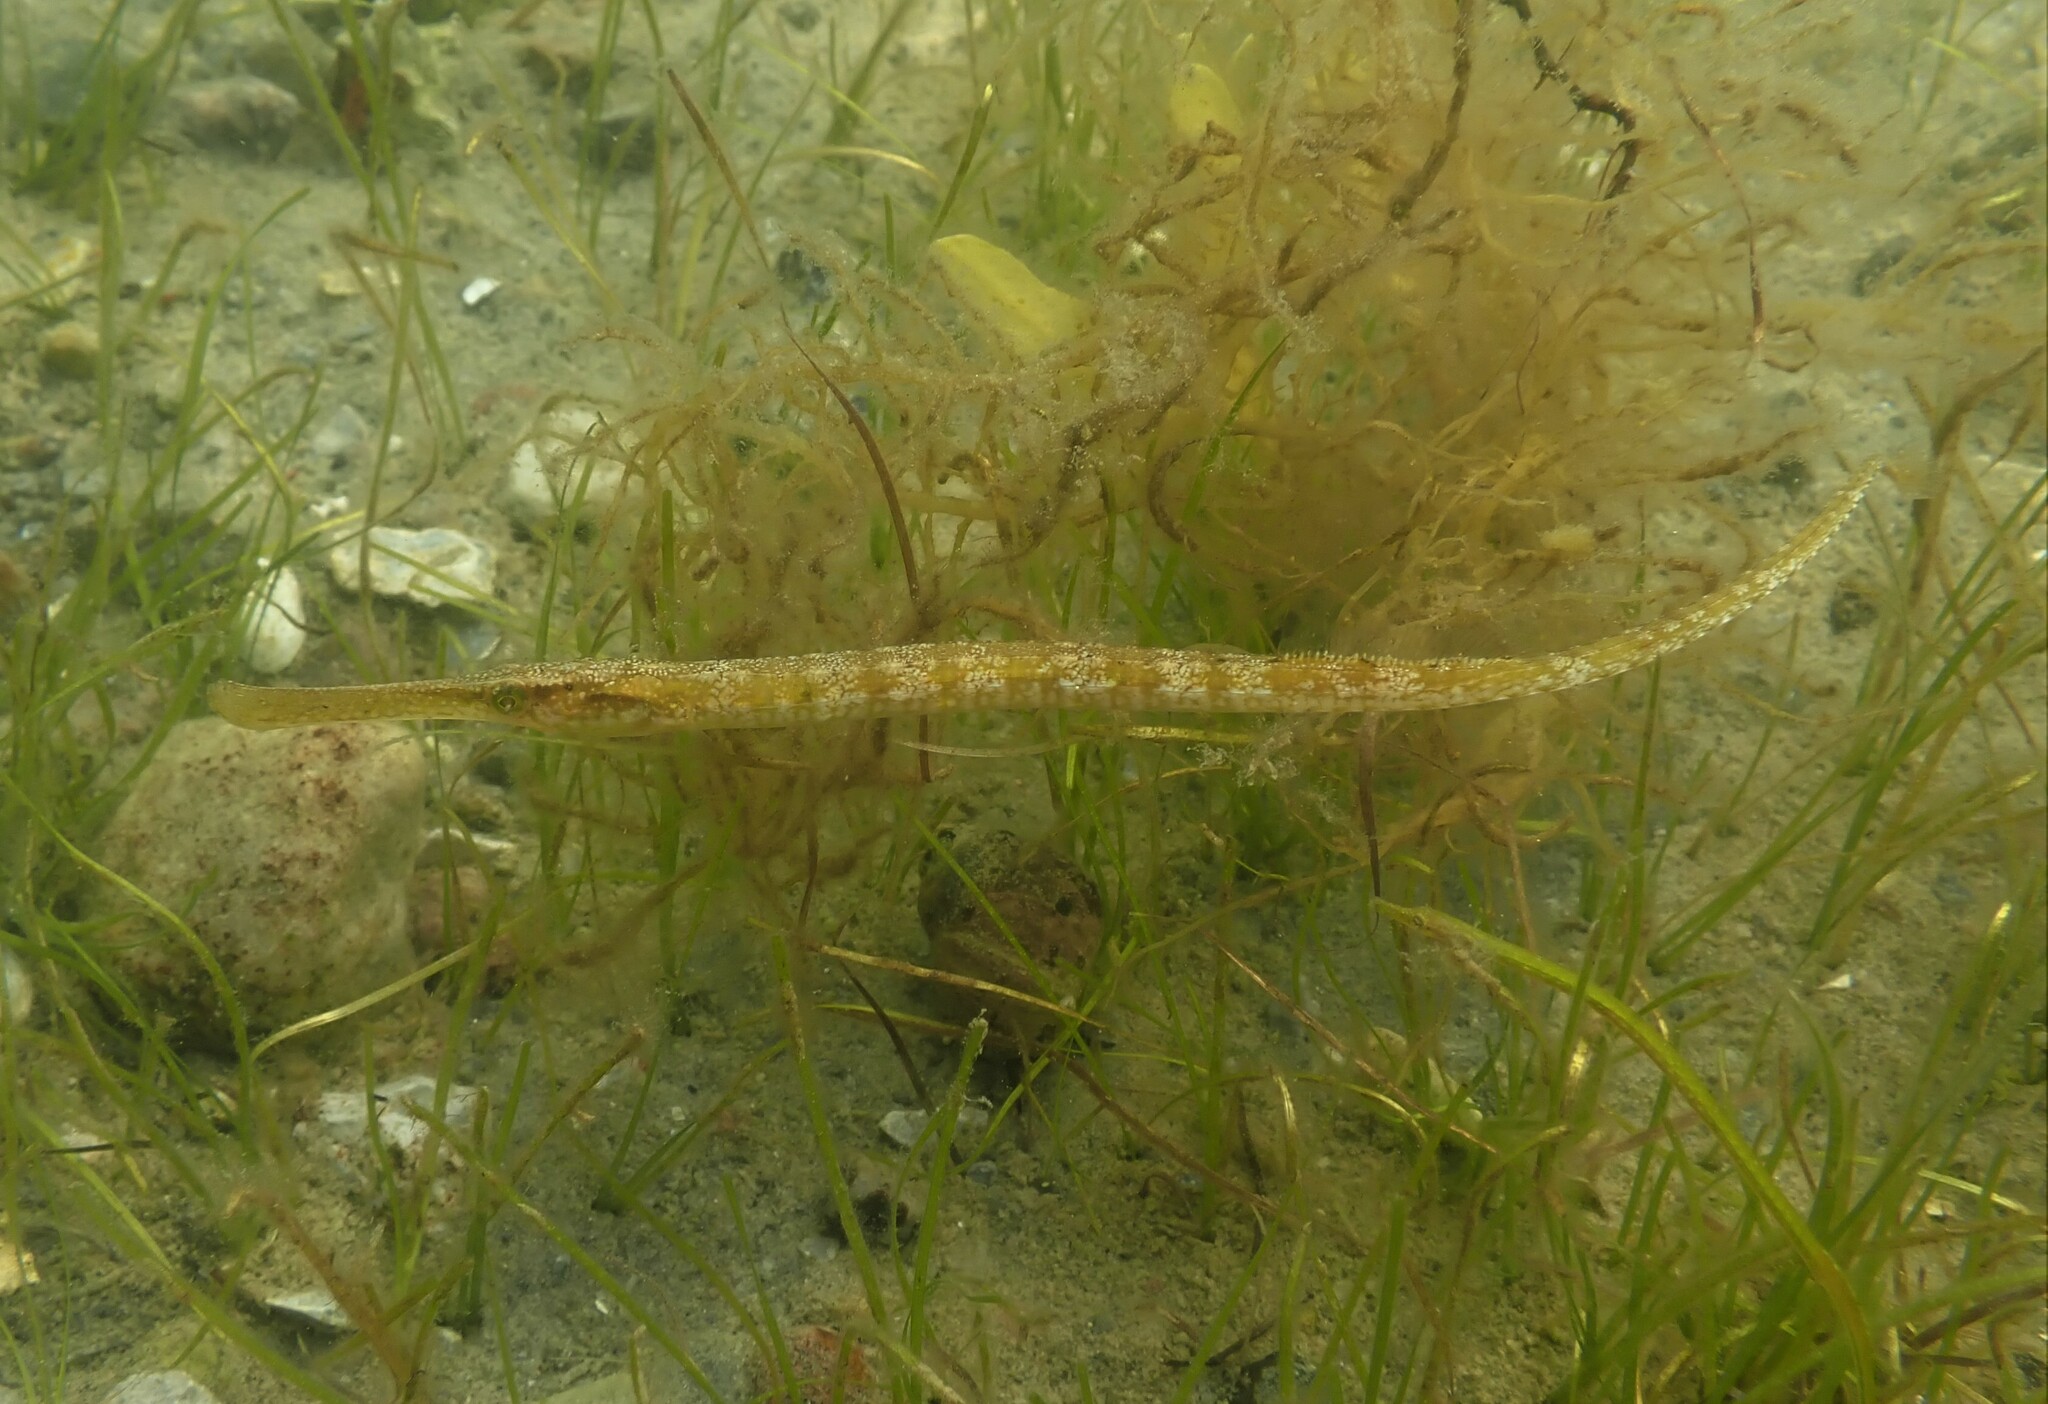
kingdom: Animalia
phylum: Chordata
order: Syngnathiformes
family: Syngnathidae
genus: Syngnathus
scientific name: Syngnathus typhle
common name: Deep-snouted pipefish
